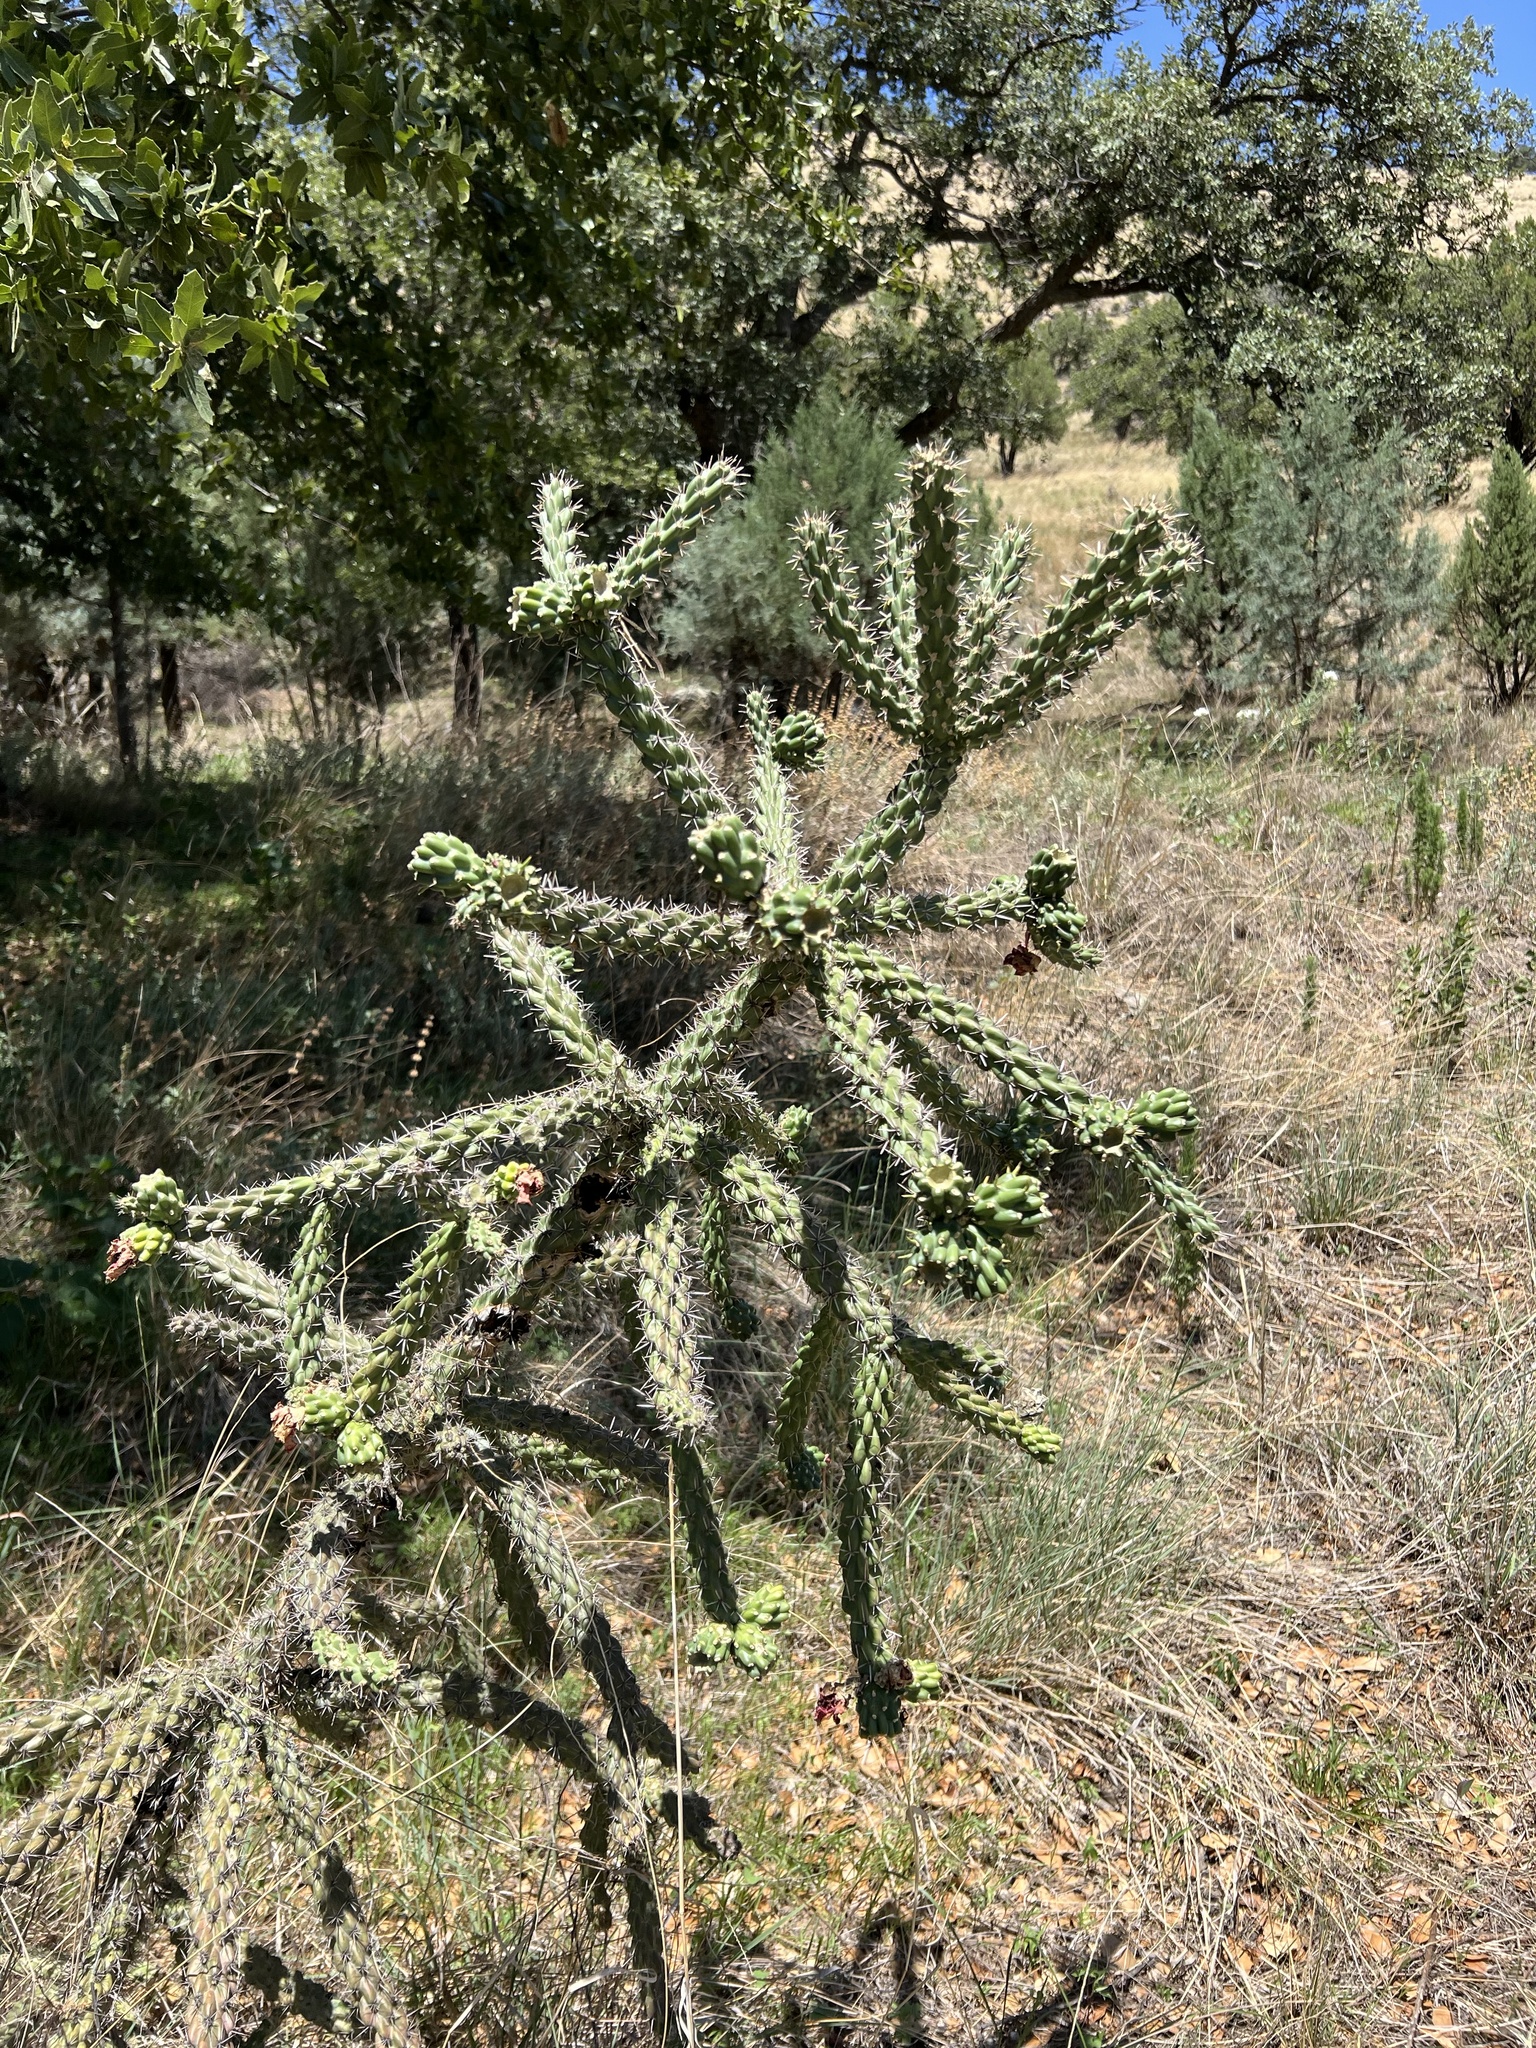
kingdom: Plantae
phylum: Tracheophyta
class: Magnoliopsida
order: Caryophyllales
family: Cactaceae
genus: Cylindropuntia
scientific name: Cylindropuntia imbricata
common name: Candelabrum cactus
